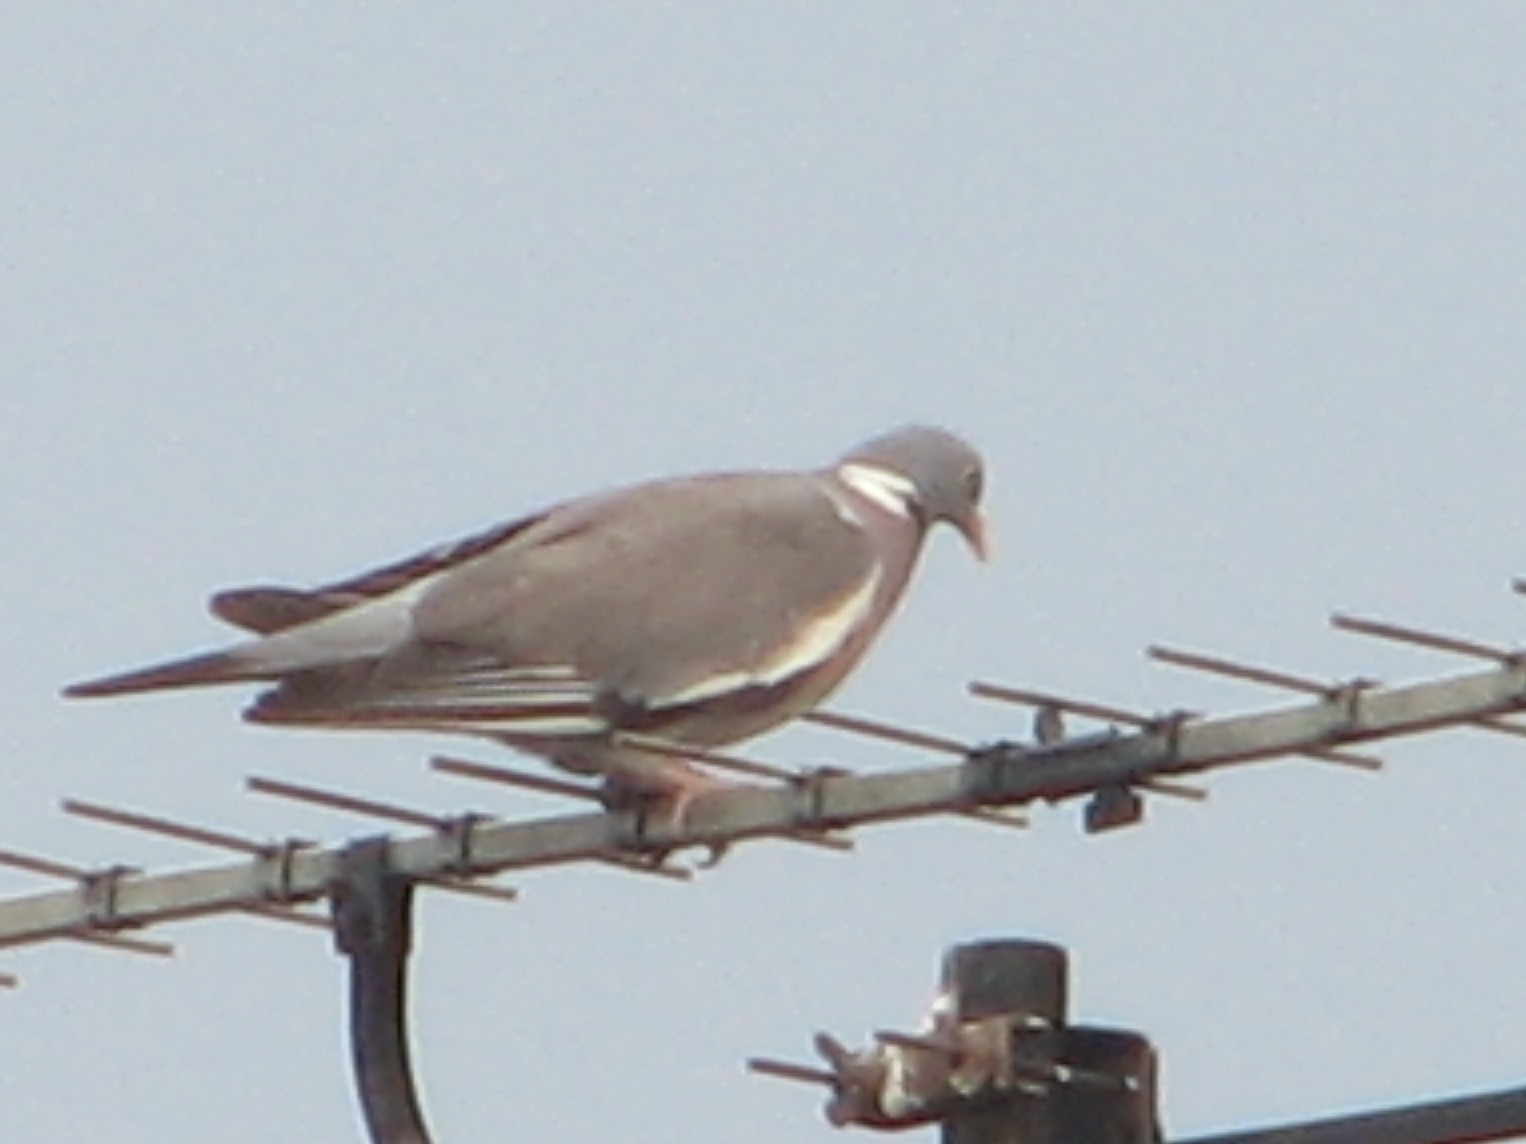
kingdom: Animalia
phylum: Chordata
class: Aves
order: Columbiformes
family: Columbidae
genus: Columba
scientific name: Columba palumbus
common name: Common wood pigeon
